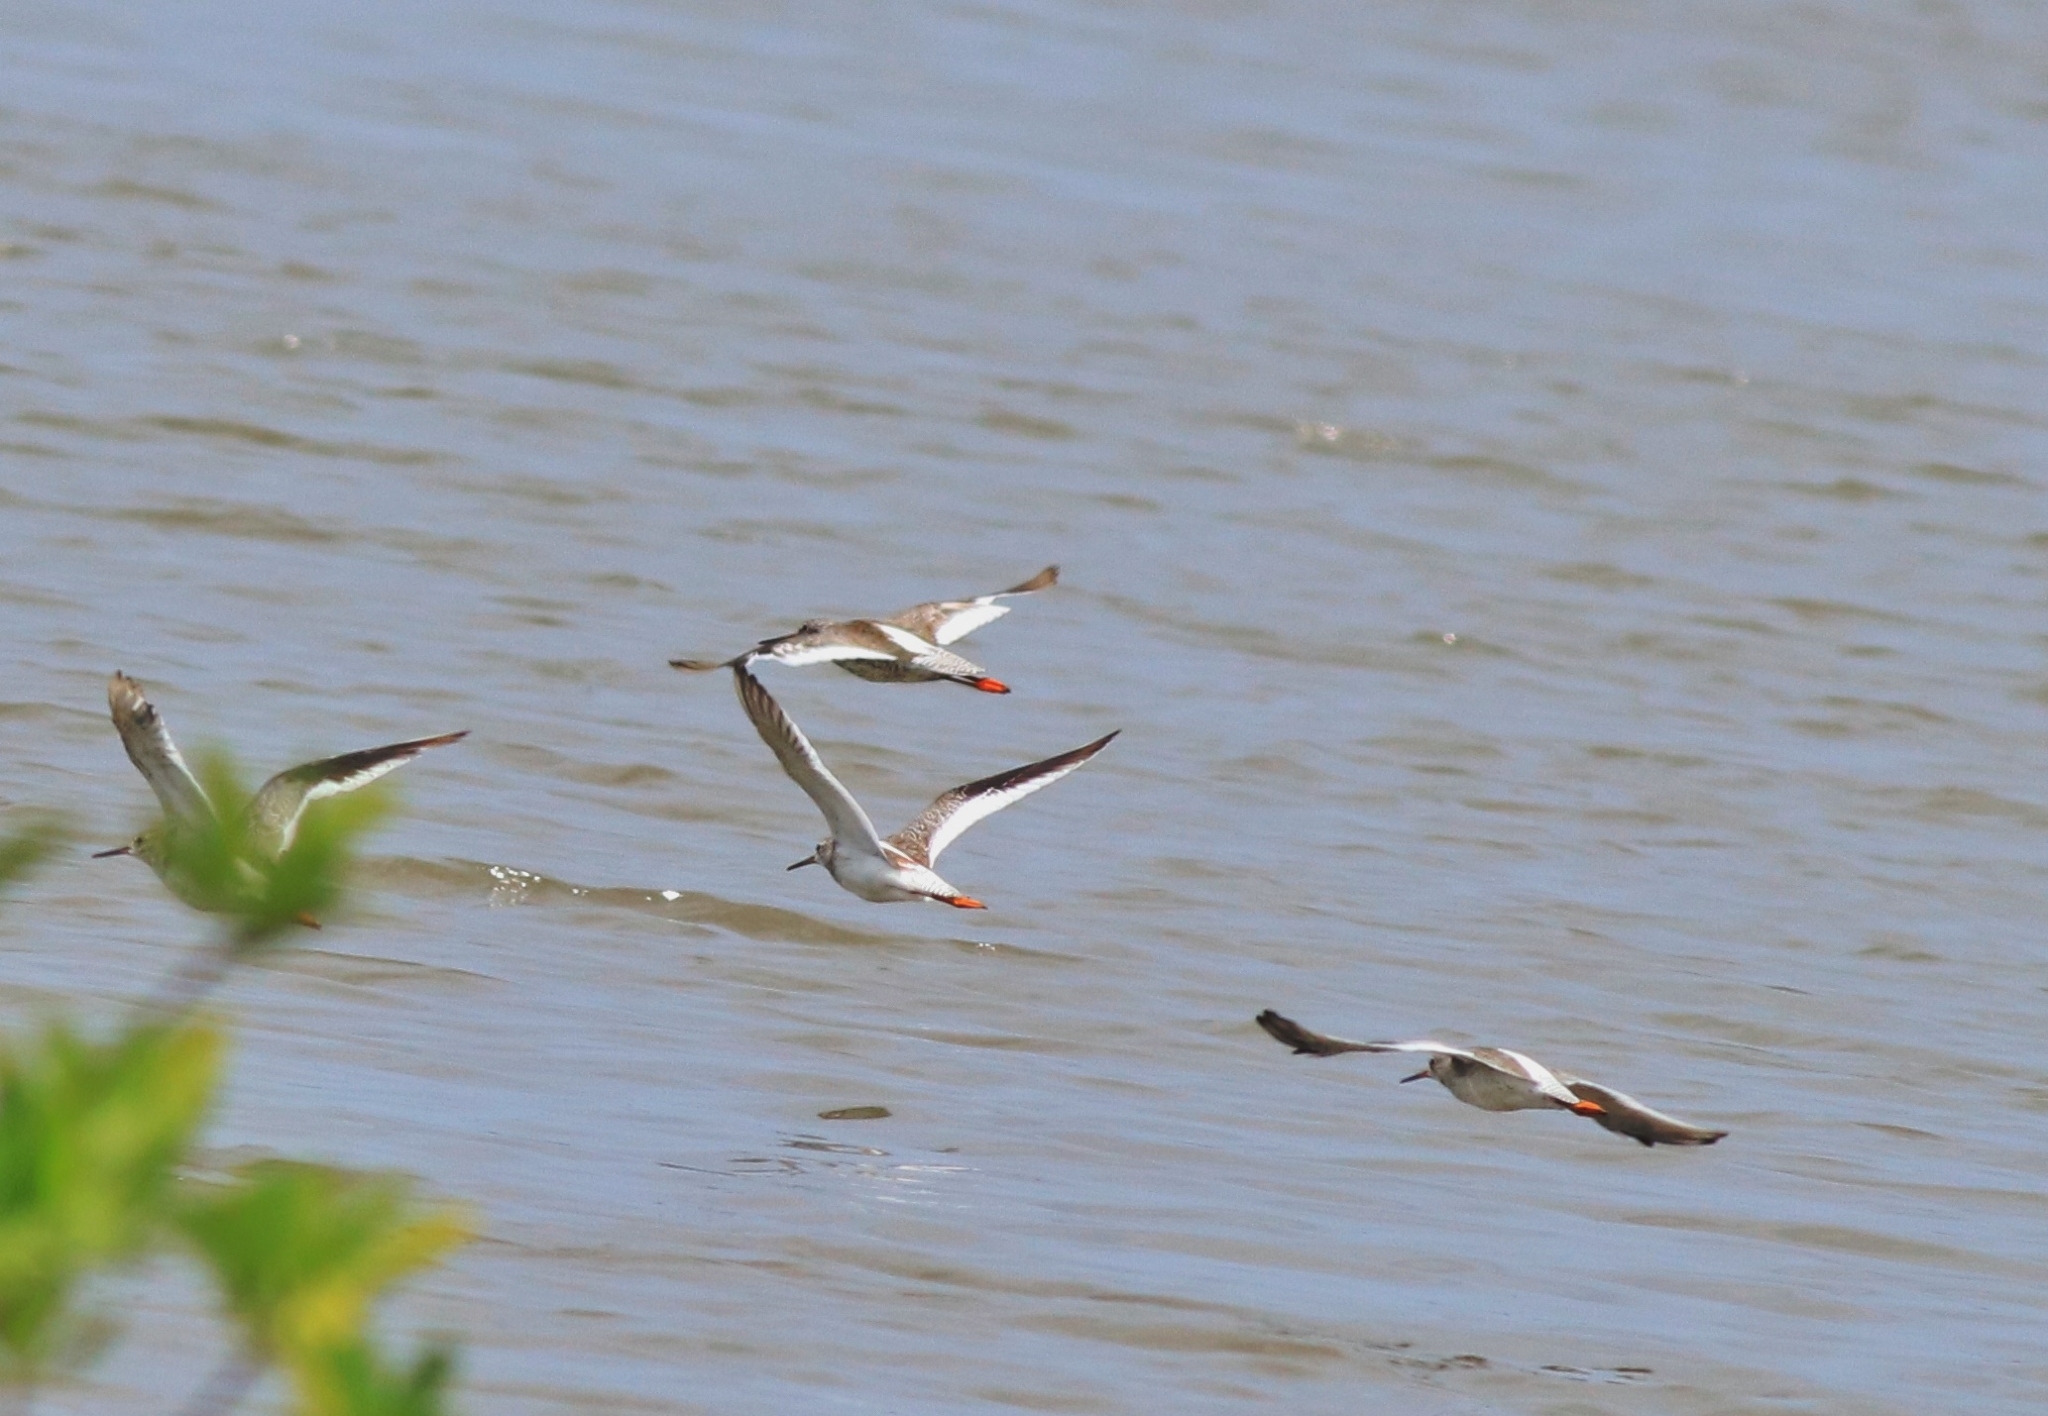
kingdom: Animalia
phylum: Chordata
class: Aves
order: Charadriiformes
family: Scolopacidae
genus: Tringa
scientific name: Tringa totanus
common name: Common redshank
